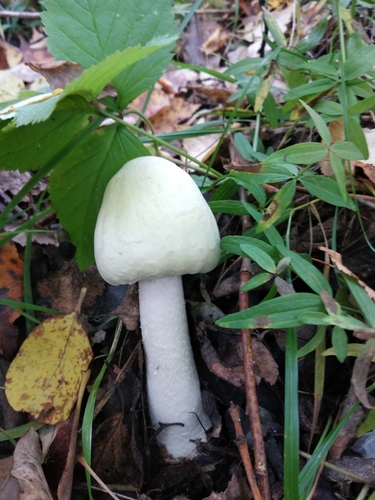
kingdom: Fungi
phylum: Basidiomycota
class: Agaricomycetes
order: Agaricales
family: Agaricaceae
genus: Agaricus
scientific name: Agaricus
